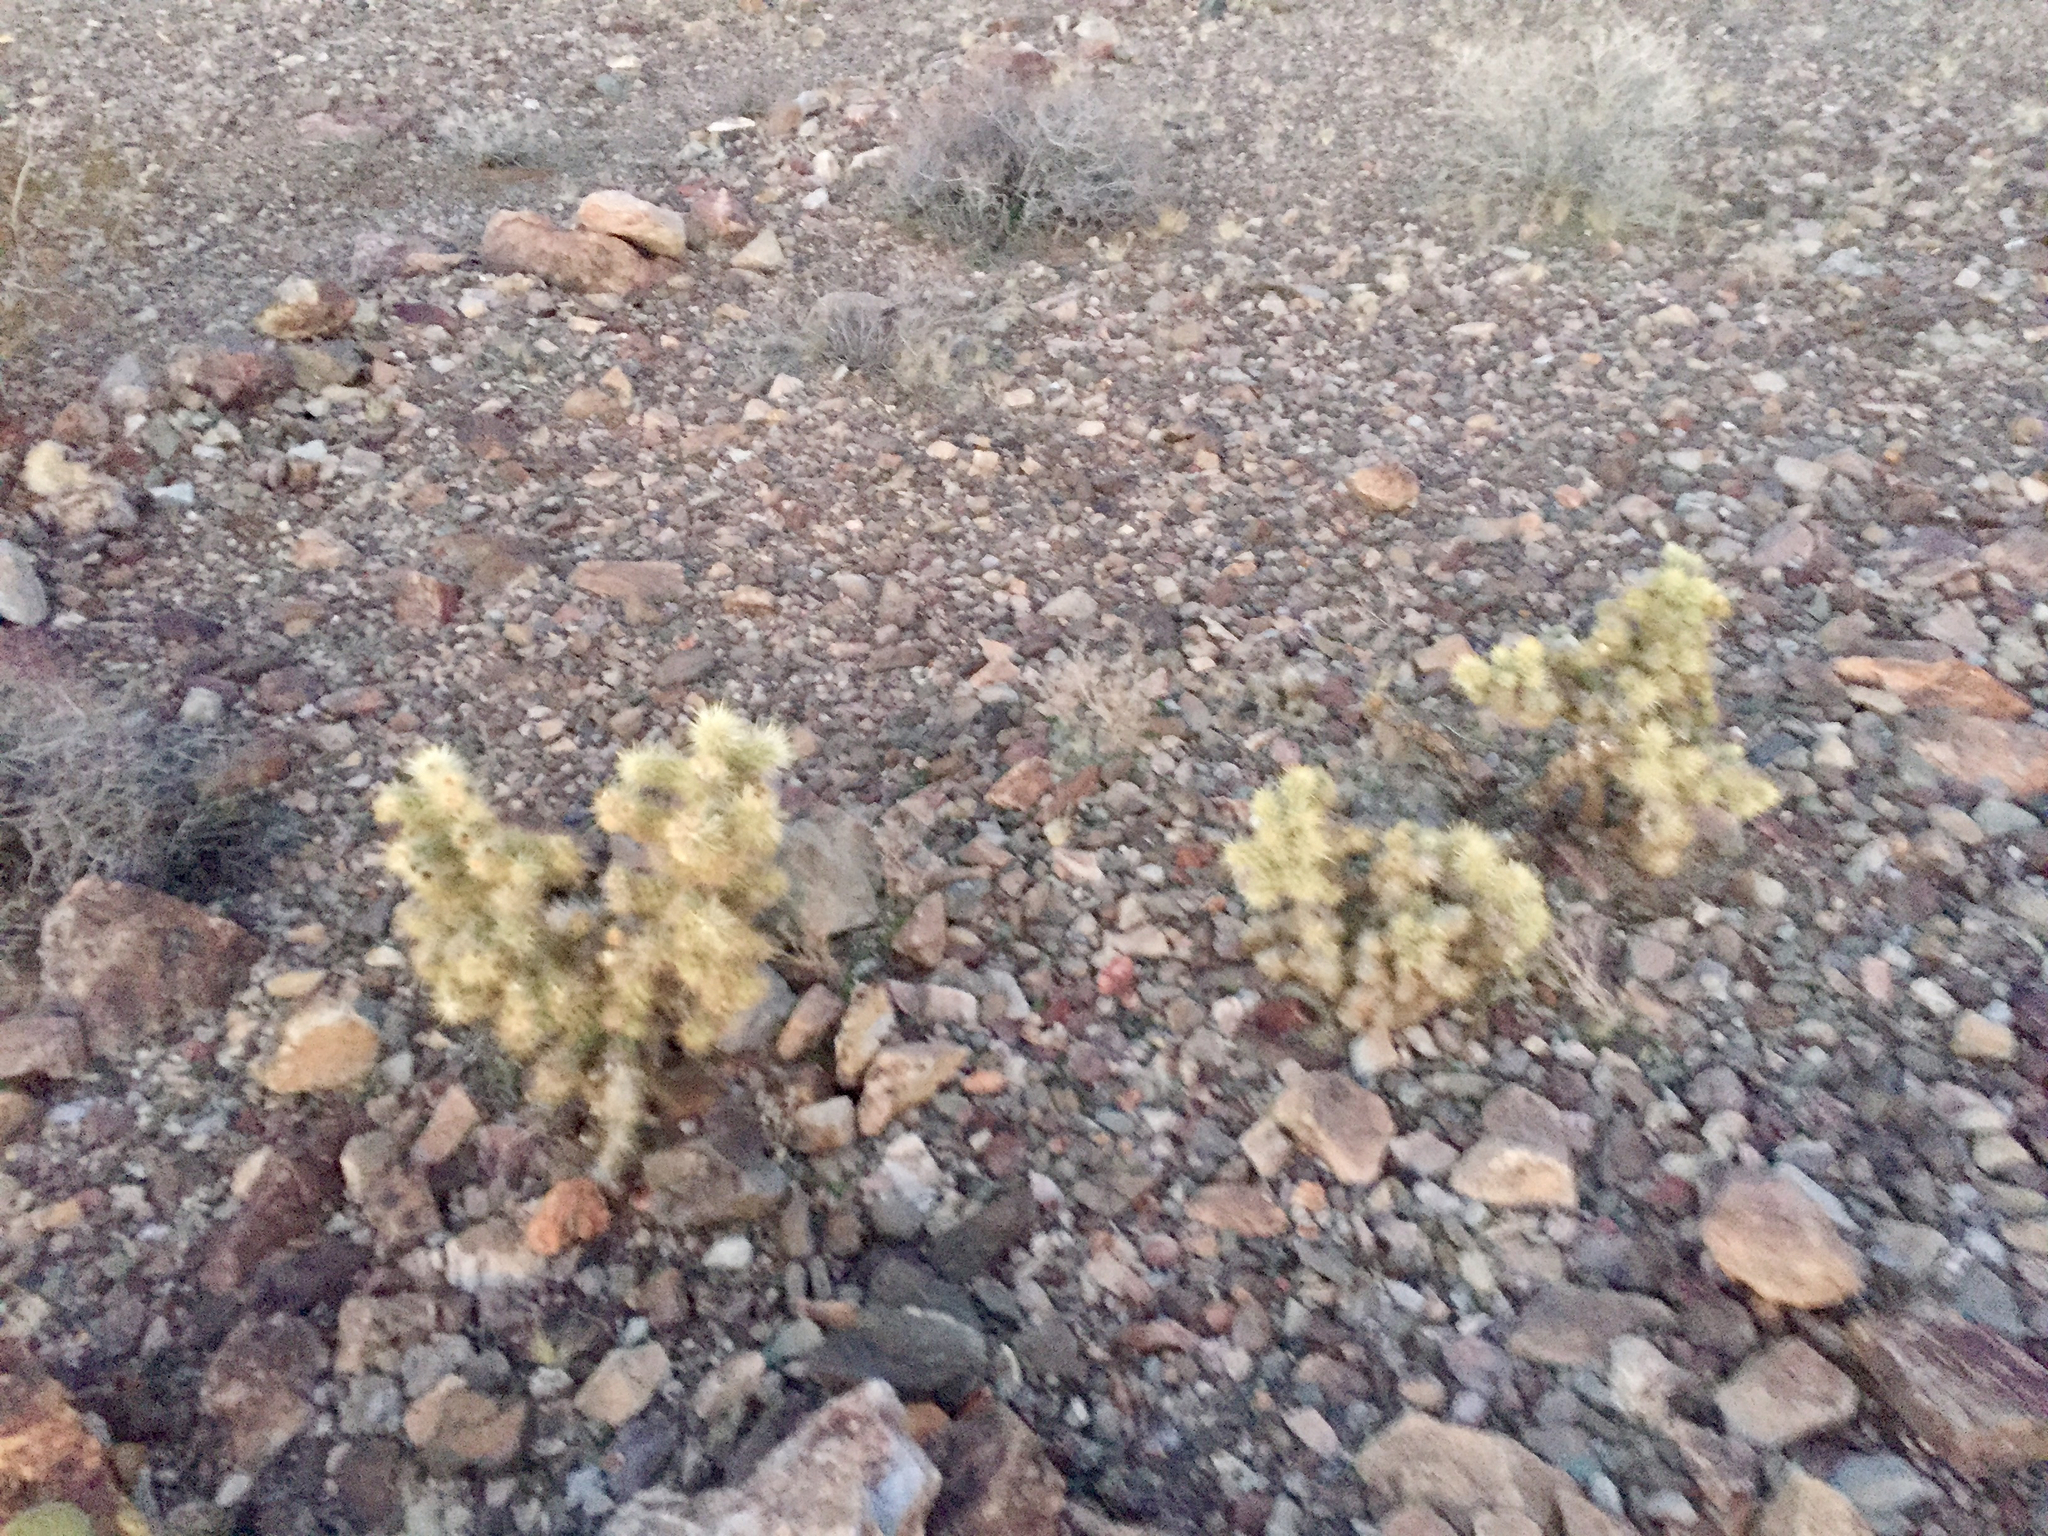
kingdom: Plantae
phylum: Tracheophyta
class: Magnoliopsida
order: Caryophyllales
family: Cactaceae
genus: Cylindropuntia
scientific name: Cylindropuntia echinocarpa
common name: Ground cholla
